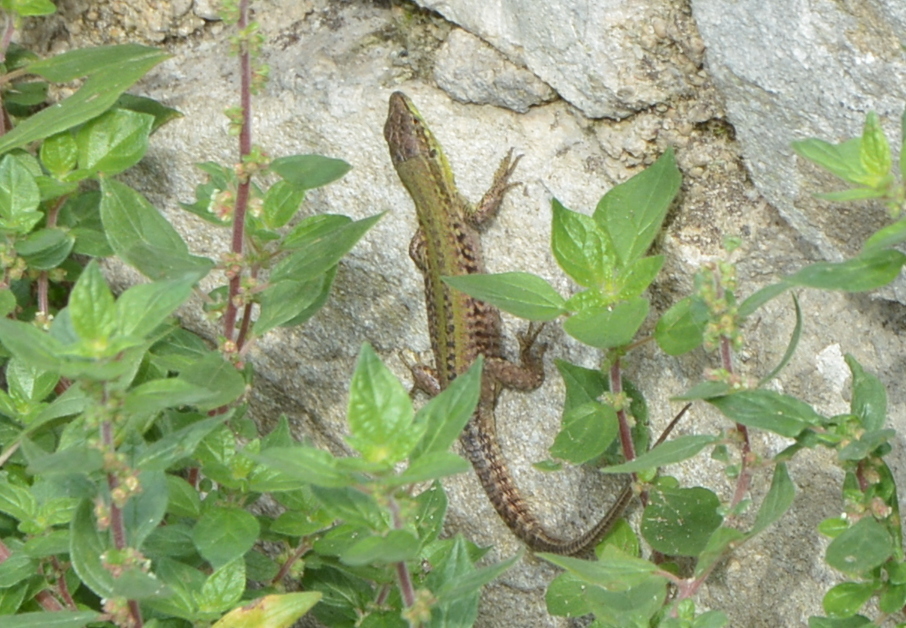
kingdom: Animalia
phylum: Chordata
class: Squamata
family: Lacertidae
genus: Podarcis
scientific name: Podarcis siculus
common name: Italian wall lizard
